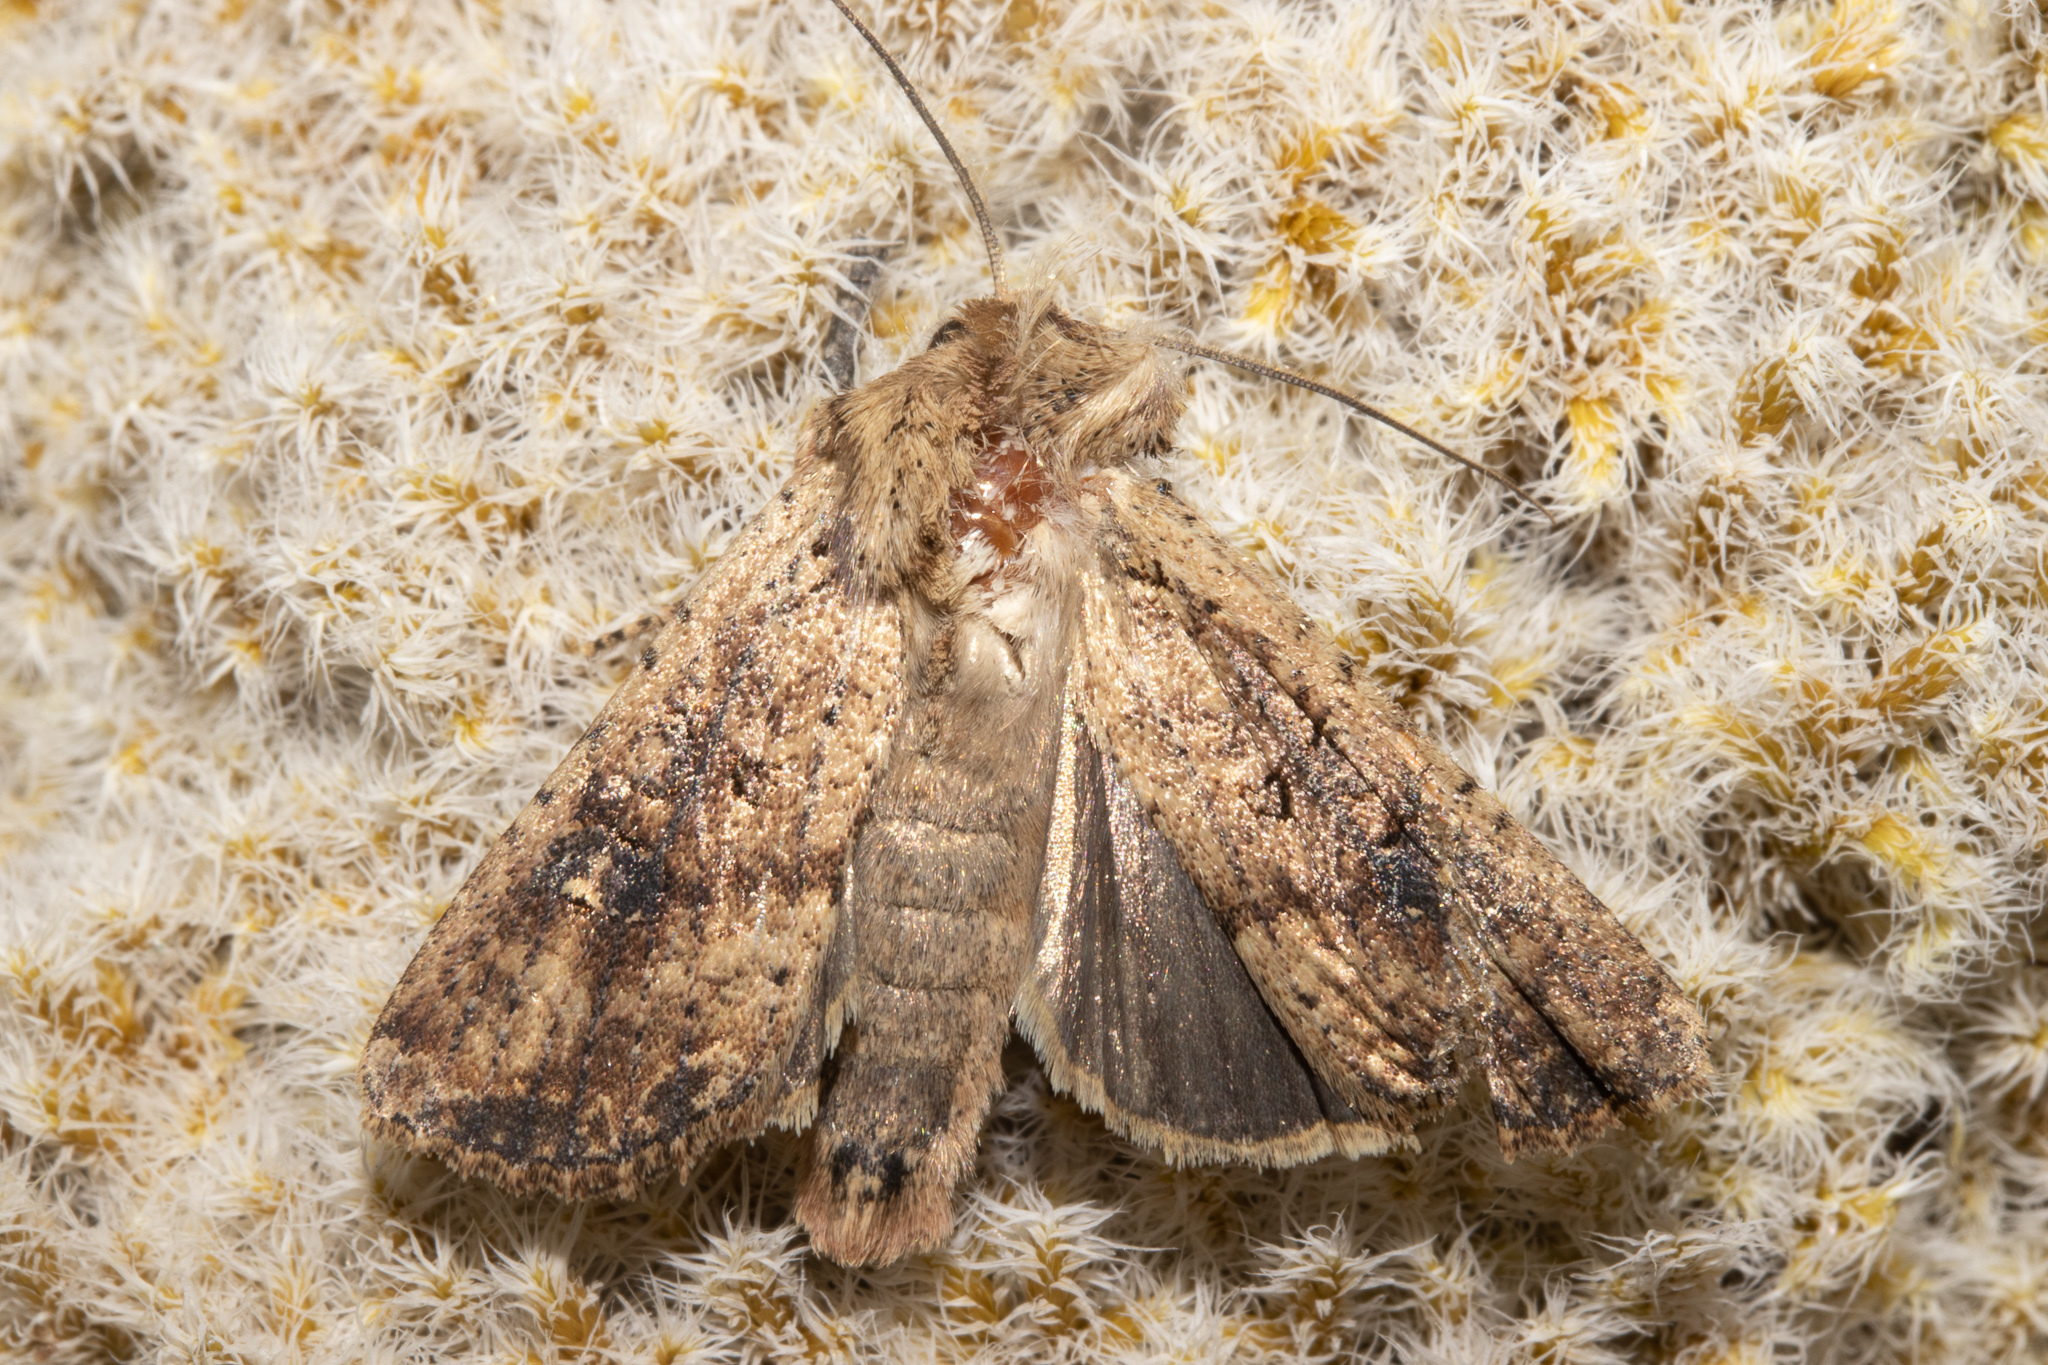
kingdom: Animalia
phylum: Arthropoda
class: Insecta
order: Lepidoptera
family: Noctuidae
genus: Ichneutica
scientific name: Ichneutica morosa
